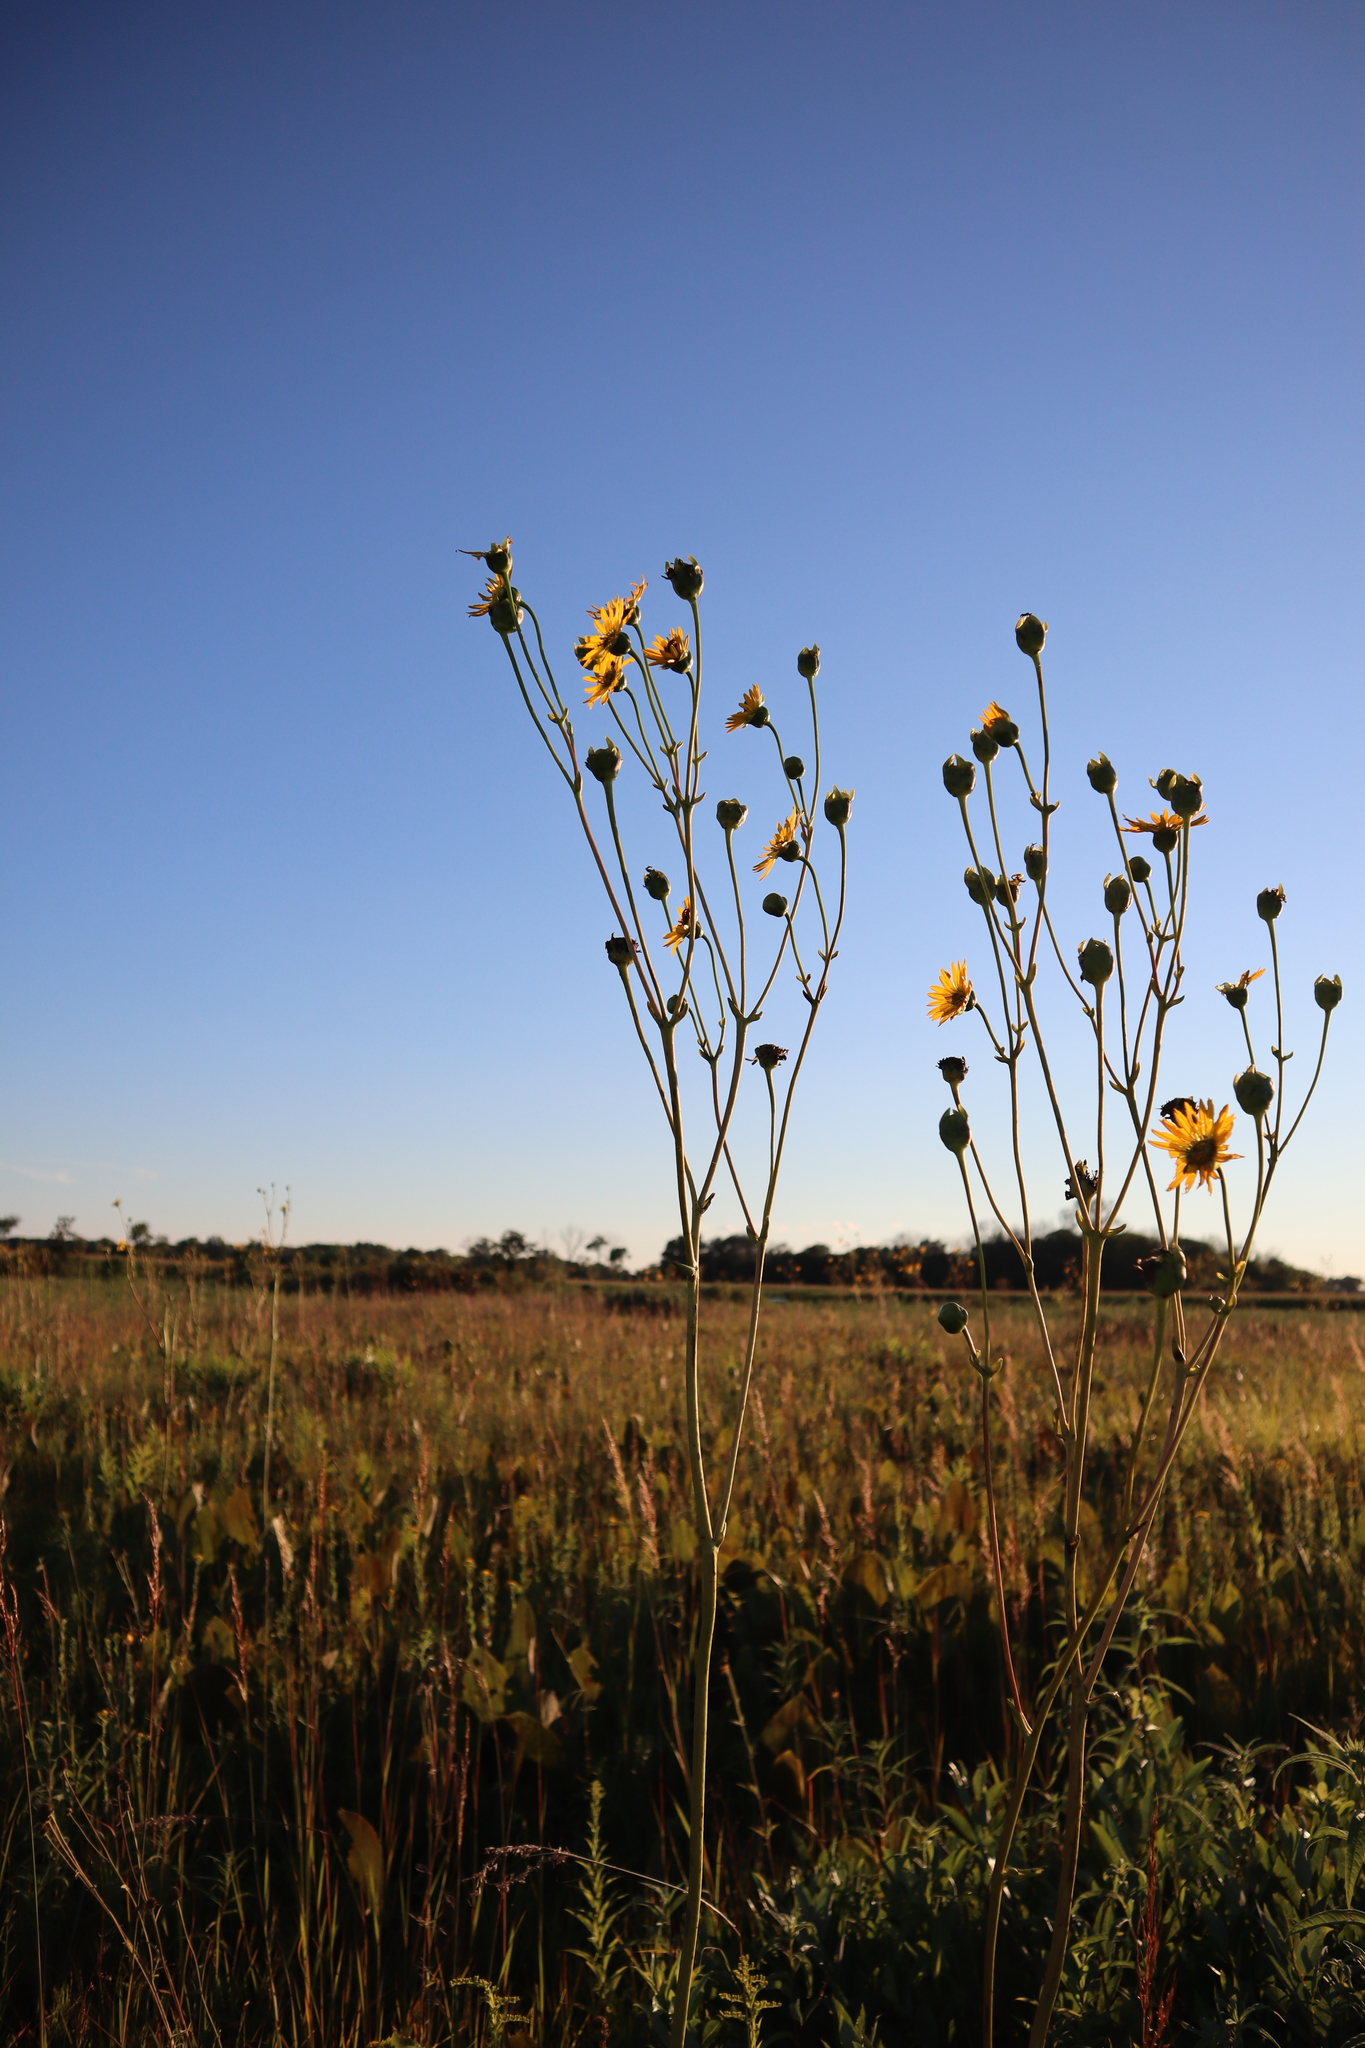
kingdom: Plantae
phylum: Tracheophyta
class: Magnoliopsida
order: Asterales
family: Asteraceae
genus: Silphium
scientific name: Silphium terebinthinaceum
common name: Basal-leaf rosinweed
